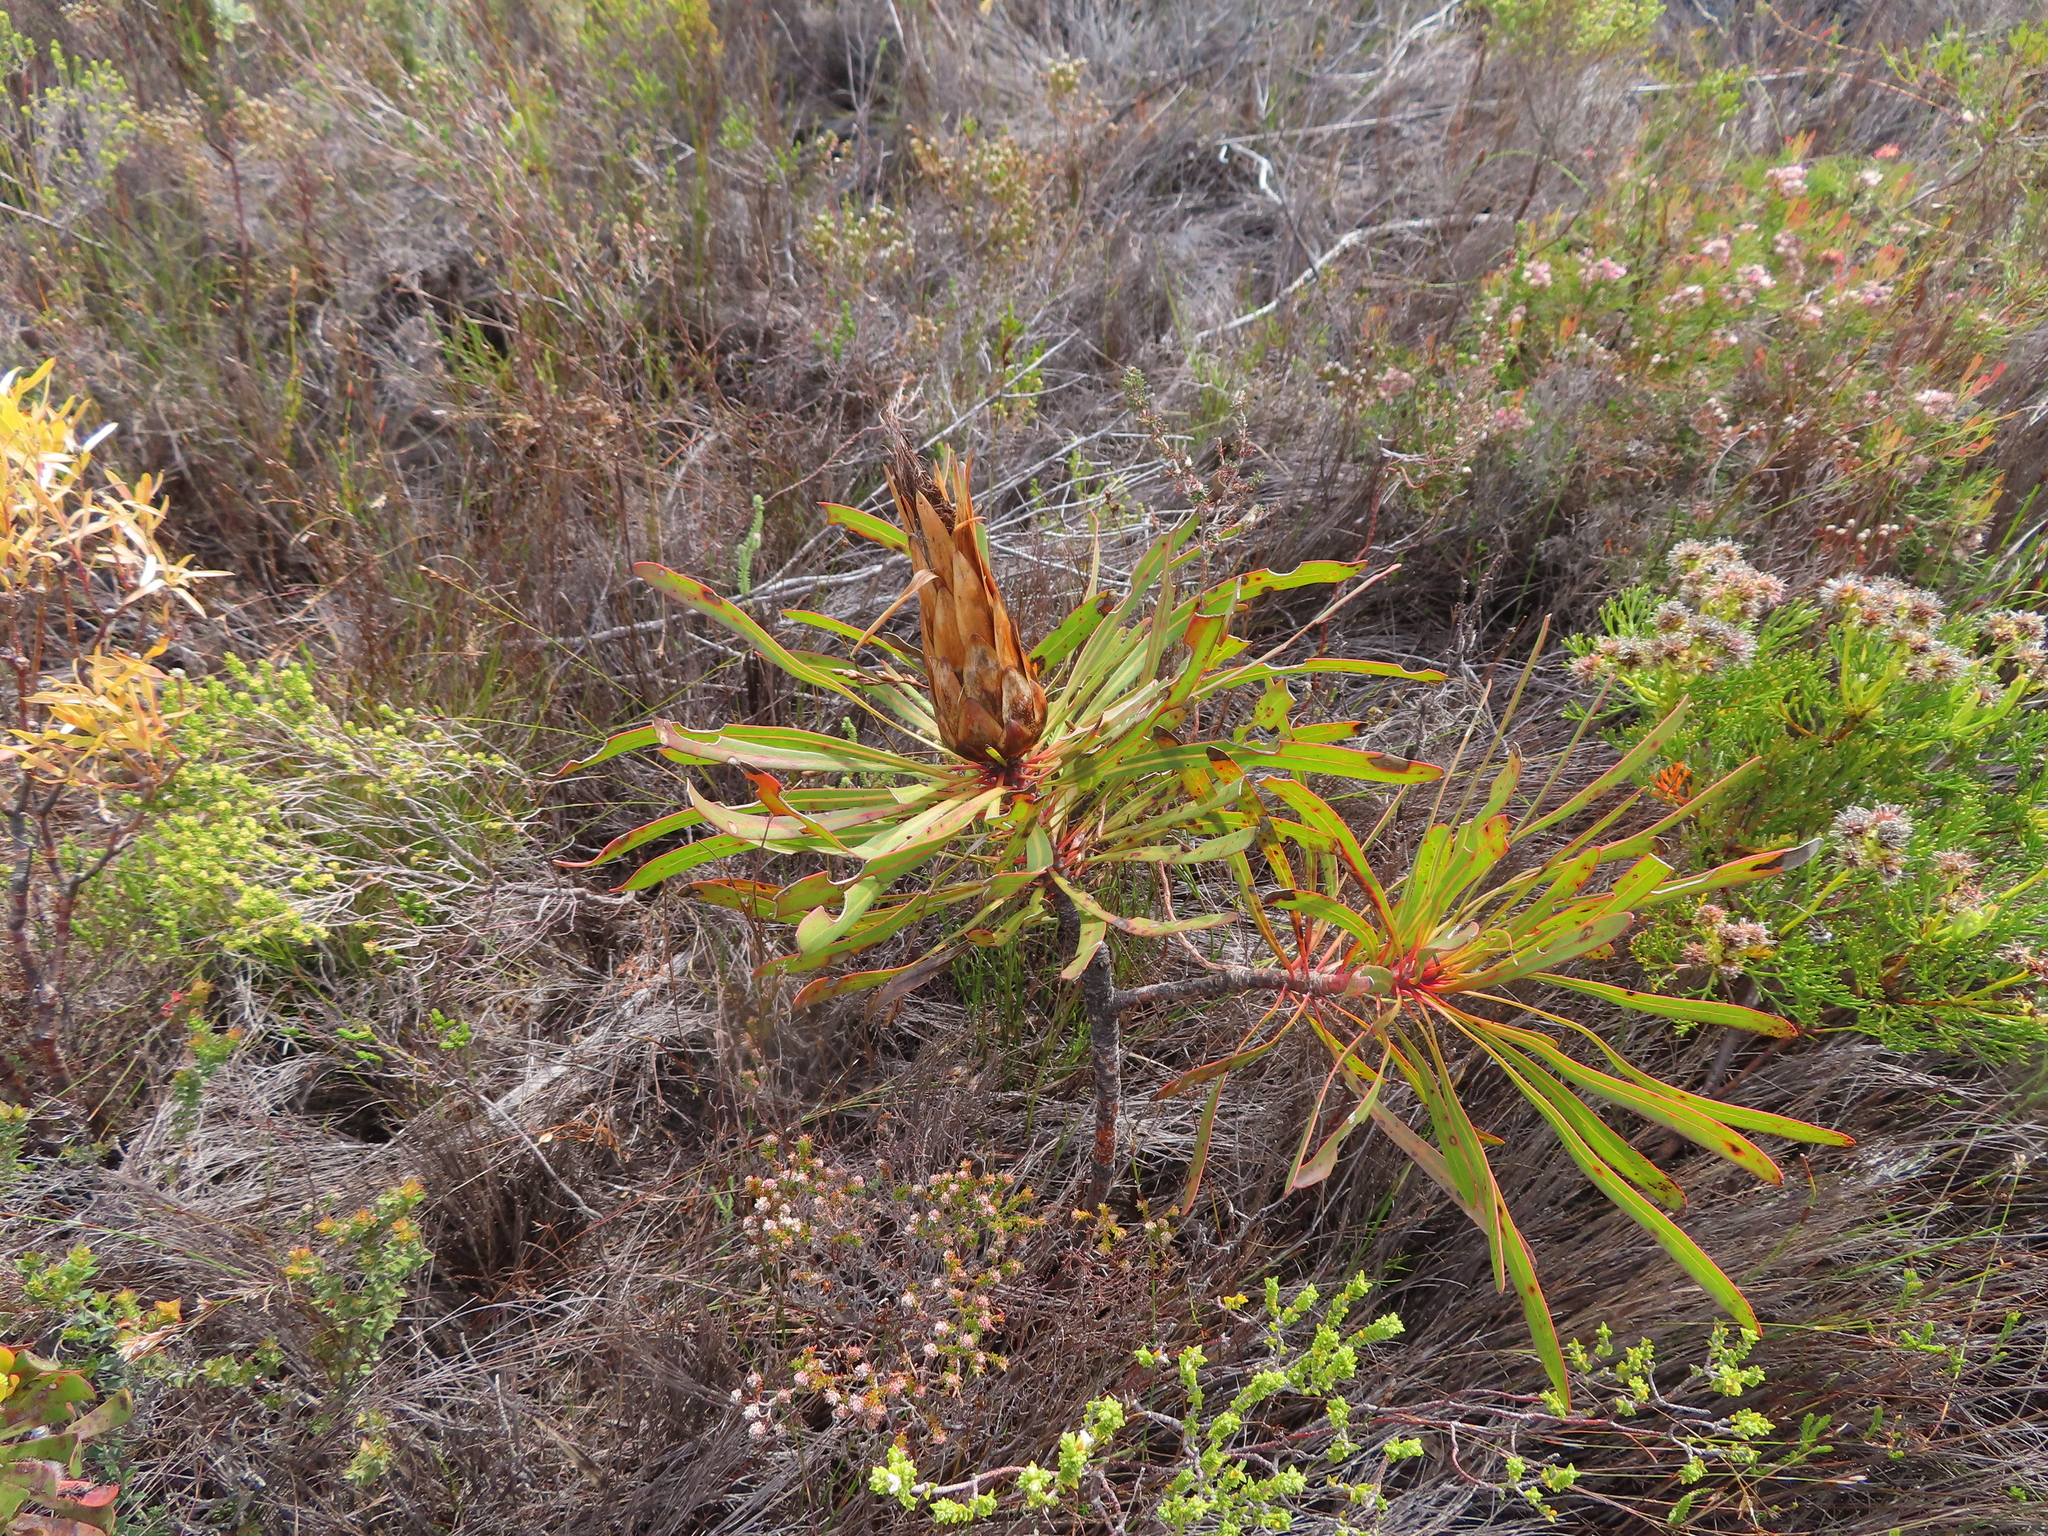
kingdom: Plantae
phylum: Tracheophyta
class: Magnoliopsida
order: Proteales
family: Proteaceae
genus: Protea
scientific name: Protea longifolia
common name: Long-leaf sugarbush
